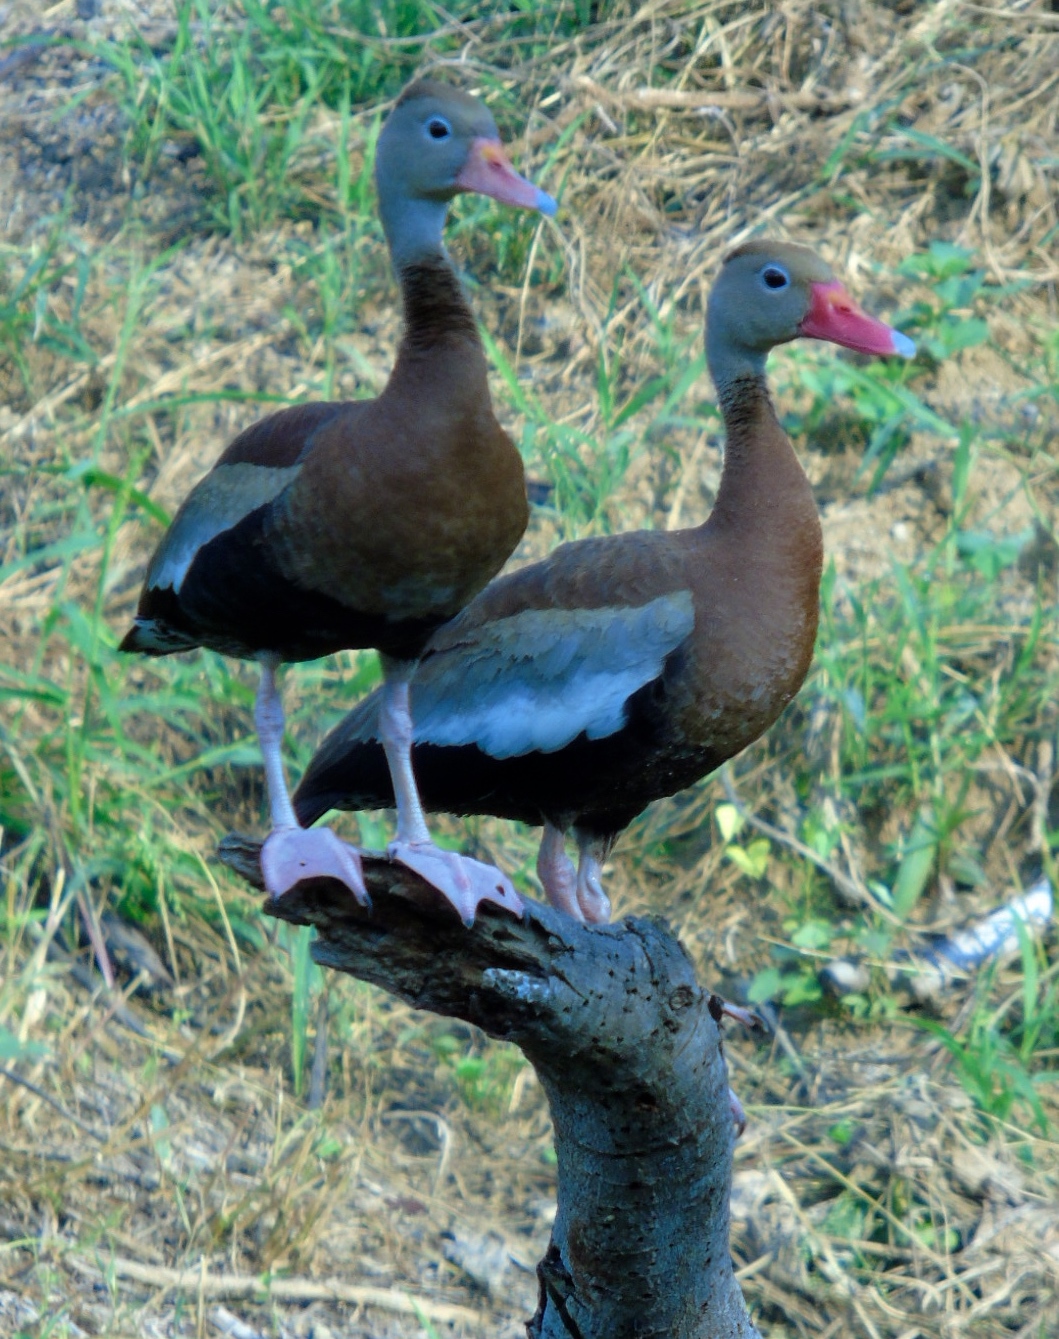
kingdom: Animalia
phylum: Chordata
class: Aves
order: Anseriformes
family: Anatidae
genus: Dendrocygna
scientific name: Dendrocygna autumnalis
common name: Black-bellied whistling duck
